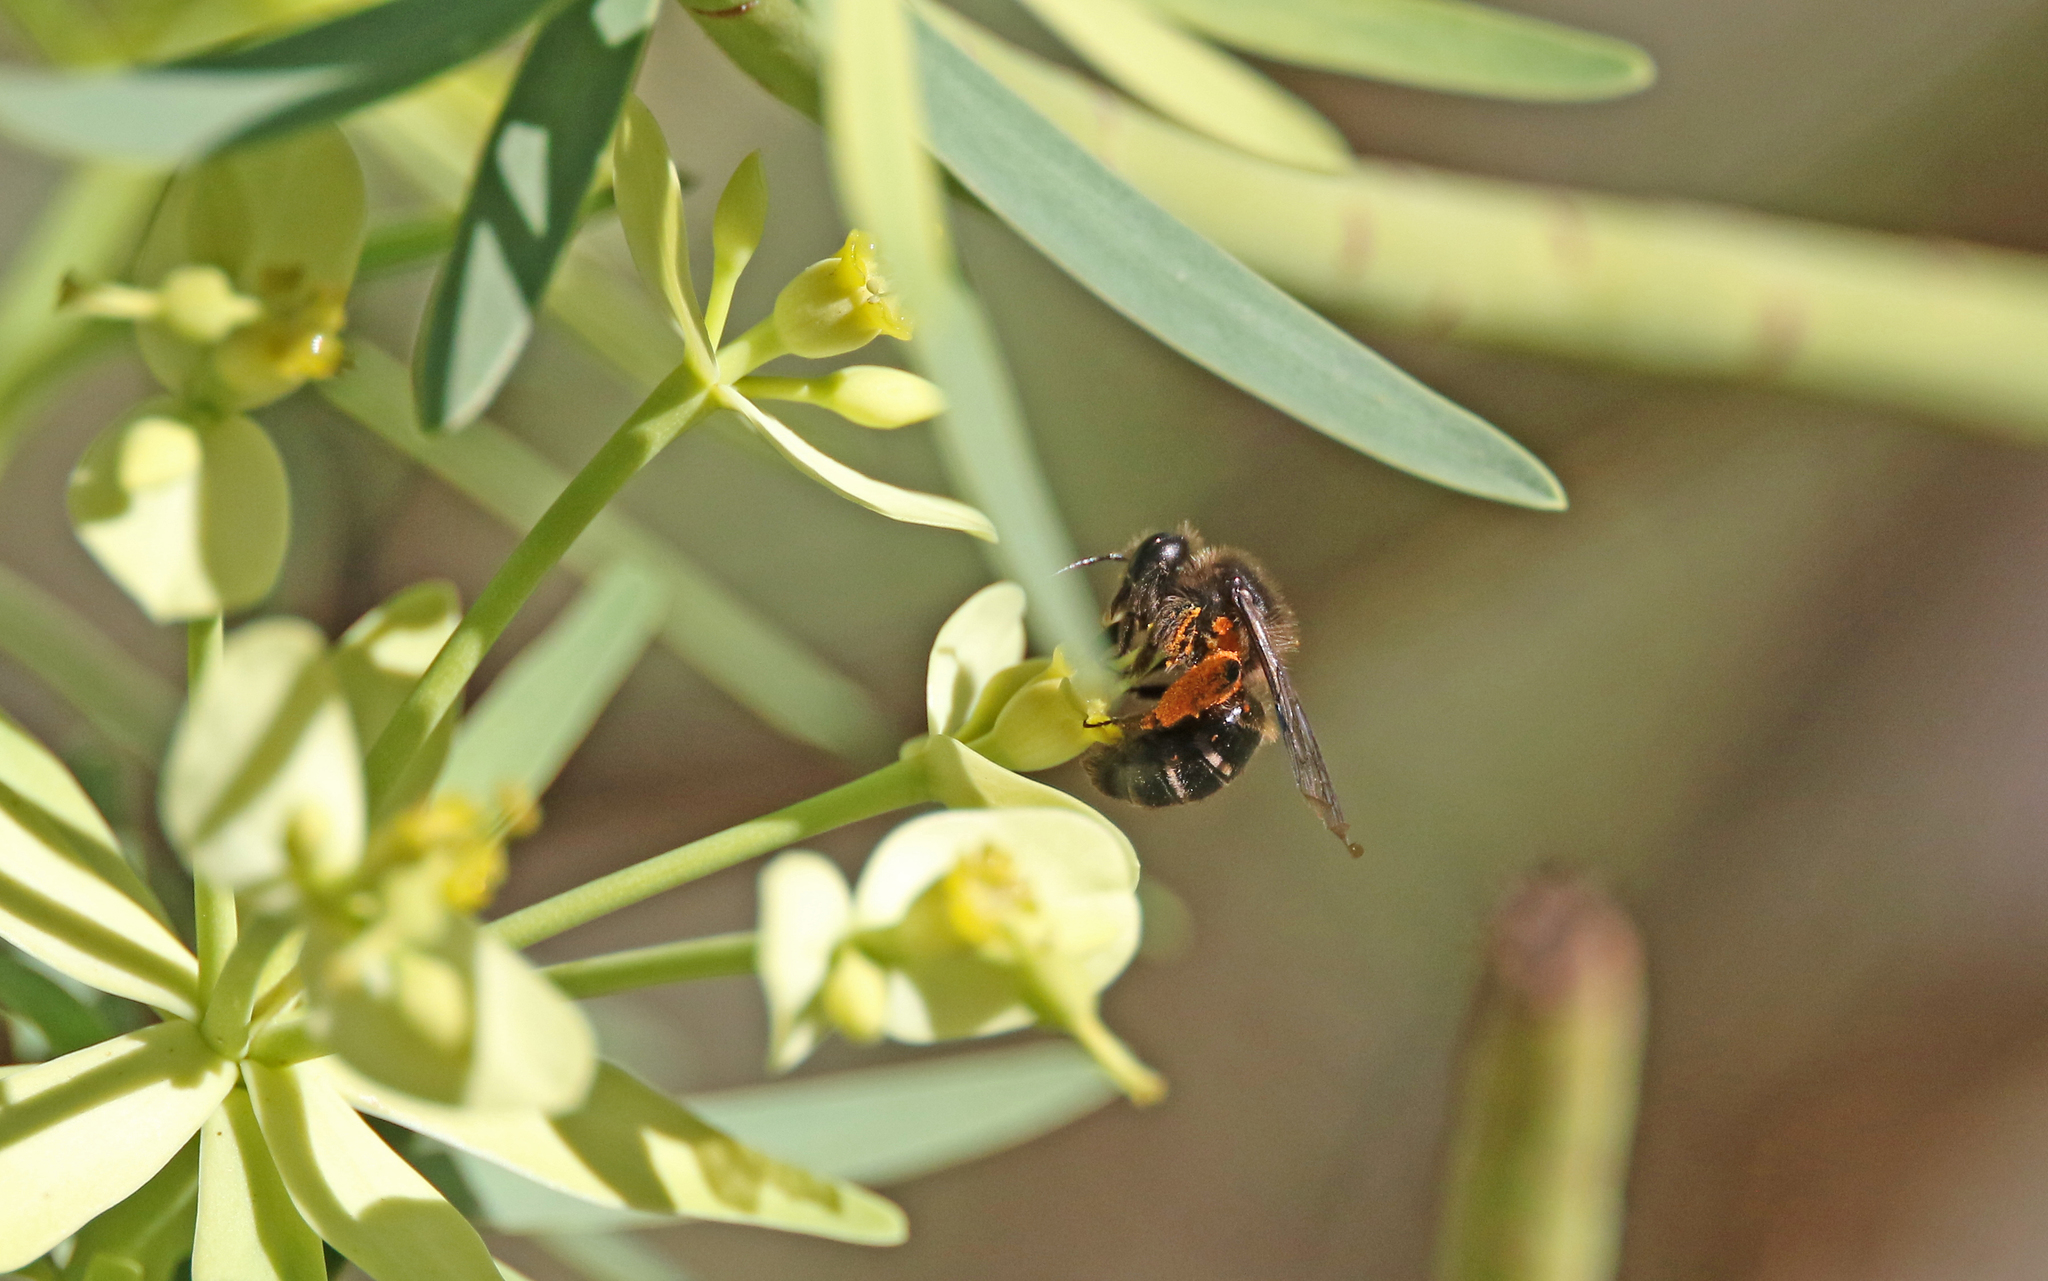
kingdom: Animalia
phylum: Arthropoda
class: Insecta
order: Hymenoptera
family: Andrenidae
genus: Andrena
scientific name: Andrena vulcana
